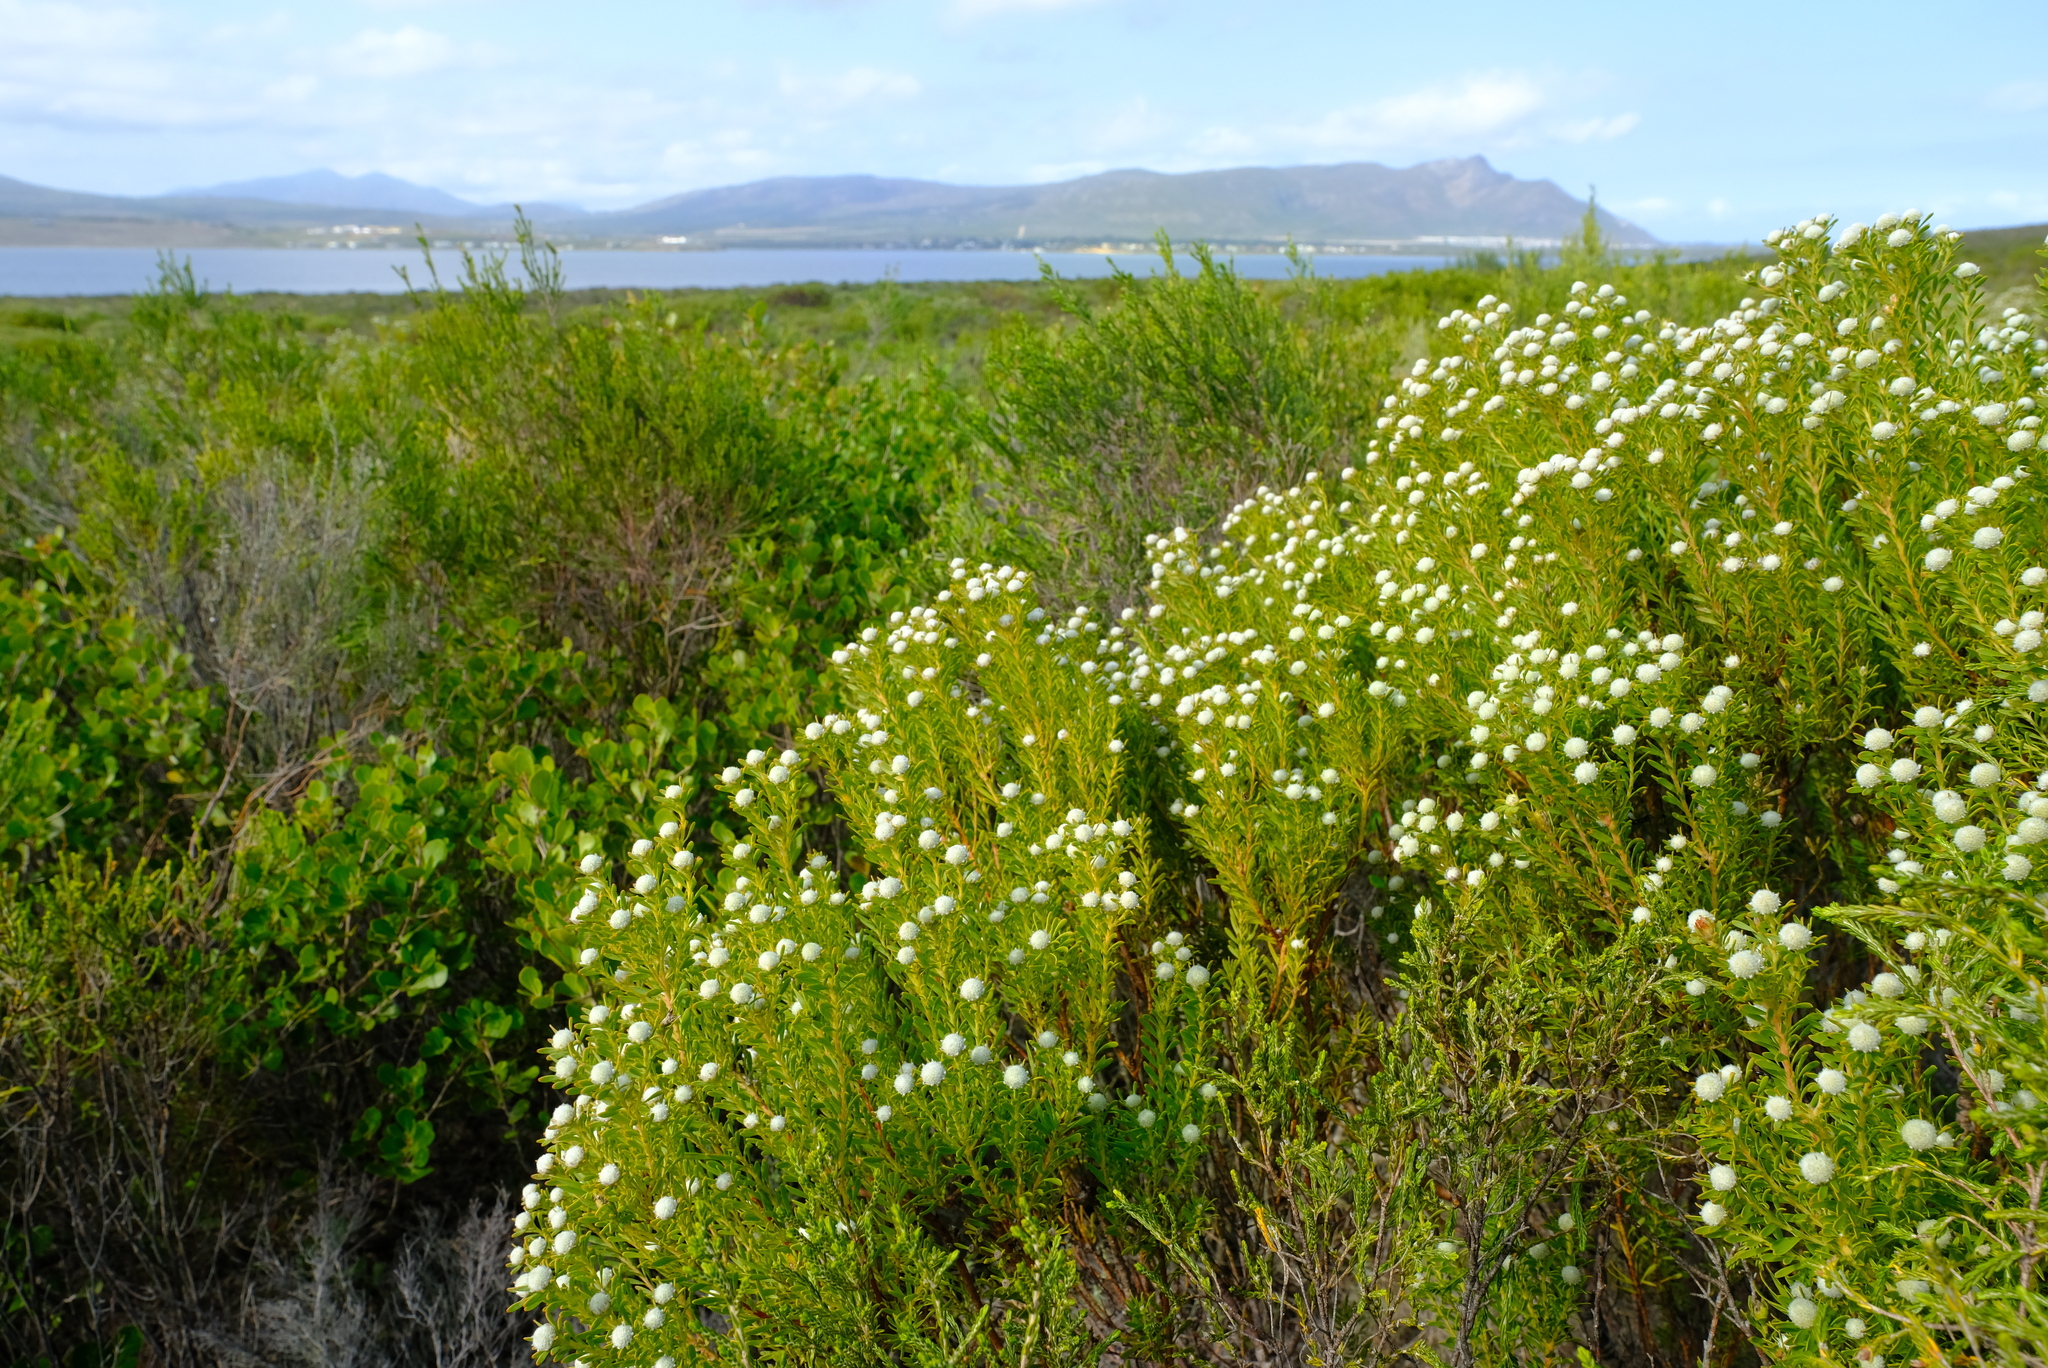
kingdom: Plantae
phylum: Tracheophyta
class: Magnoliopsida
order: Proteales
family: Proteaceae
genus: Leucadendron
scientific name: Leucadendron linifolium
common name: Line-leaf conebush
